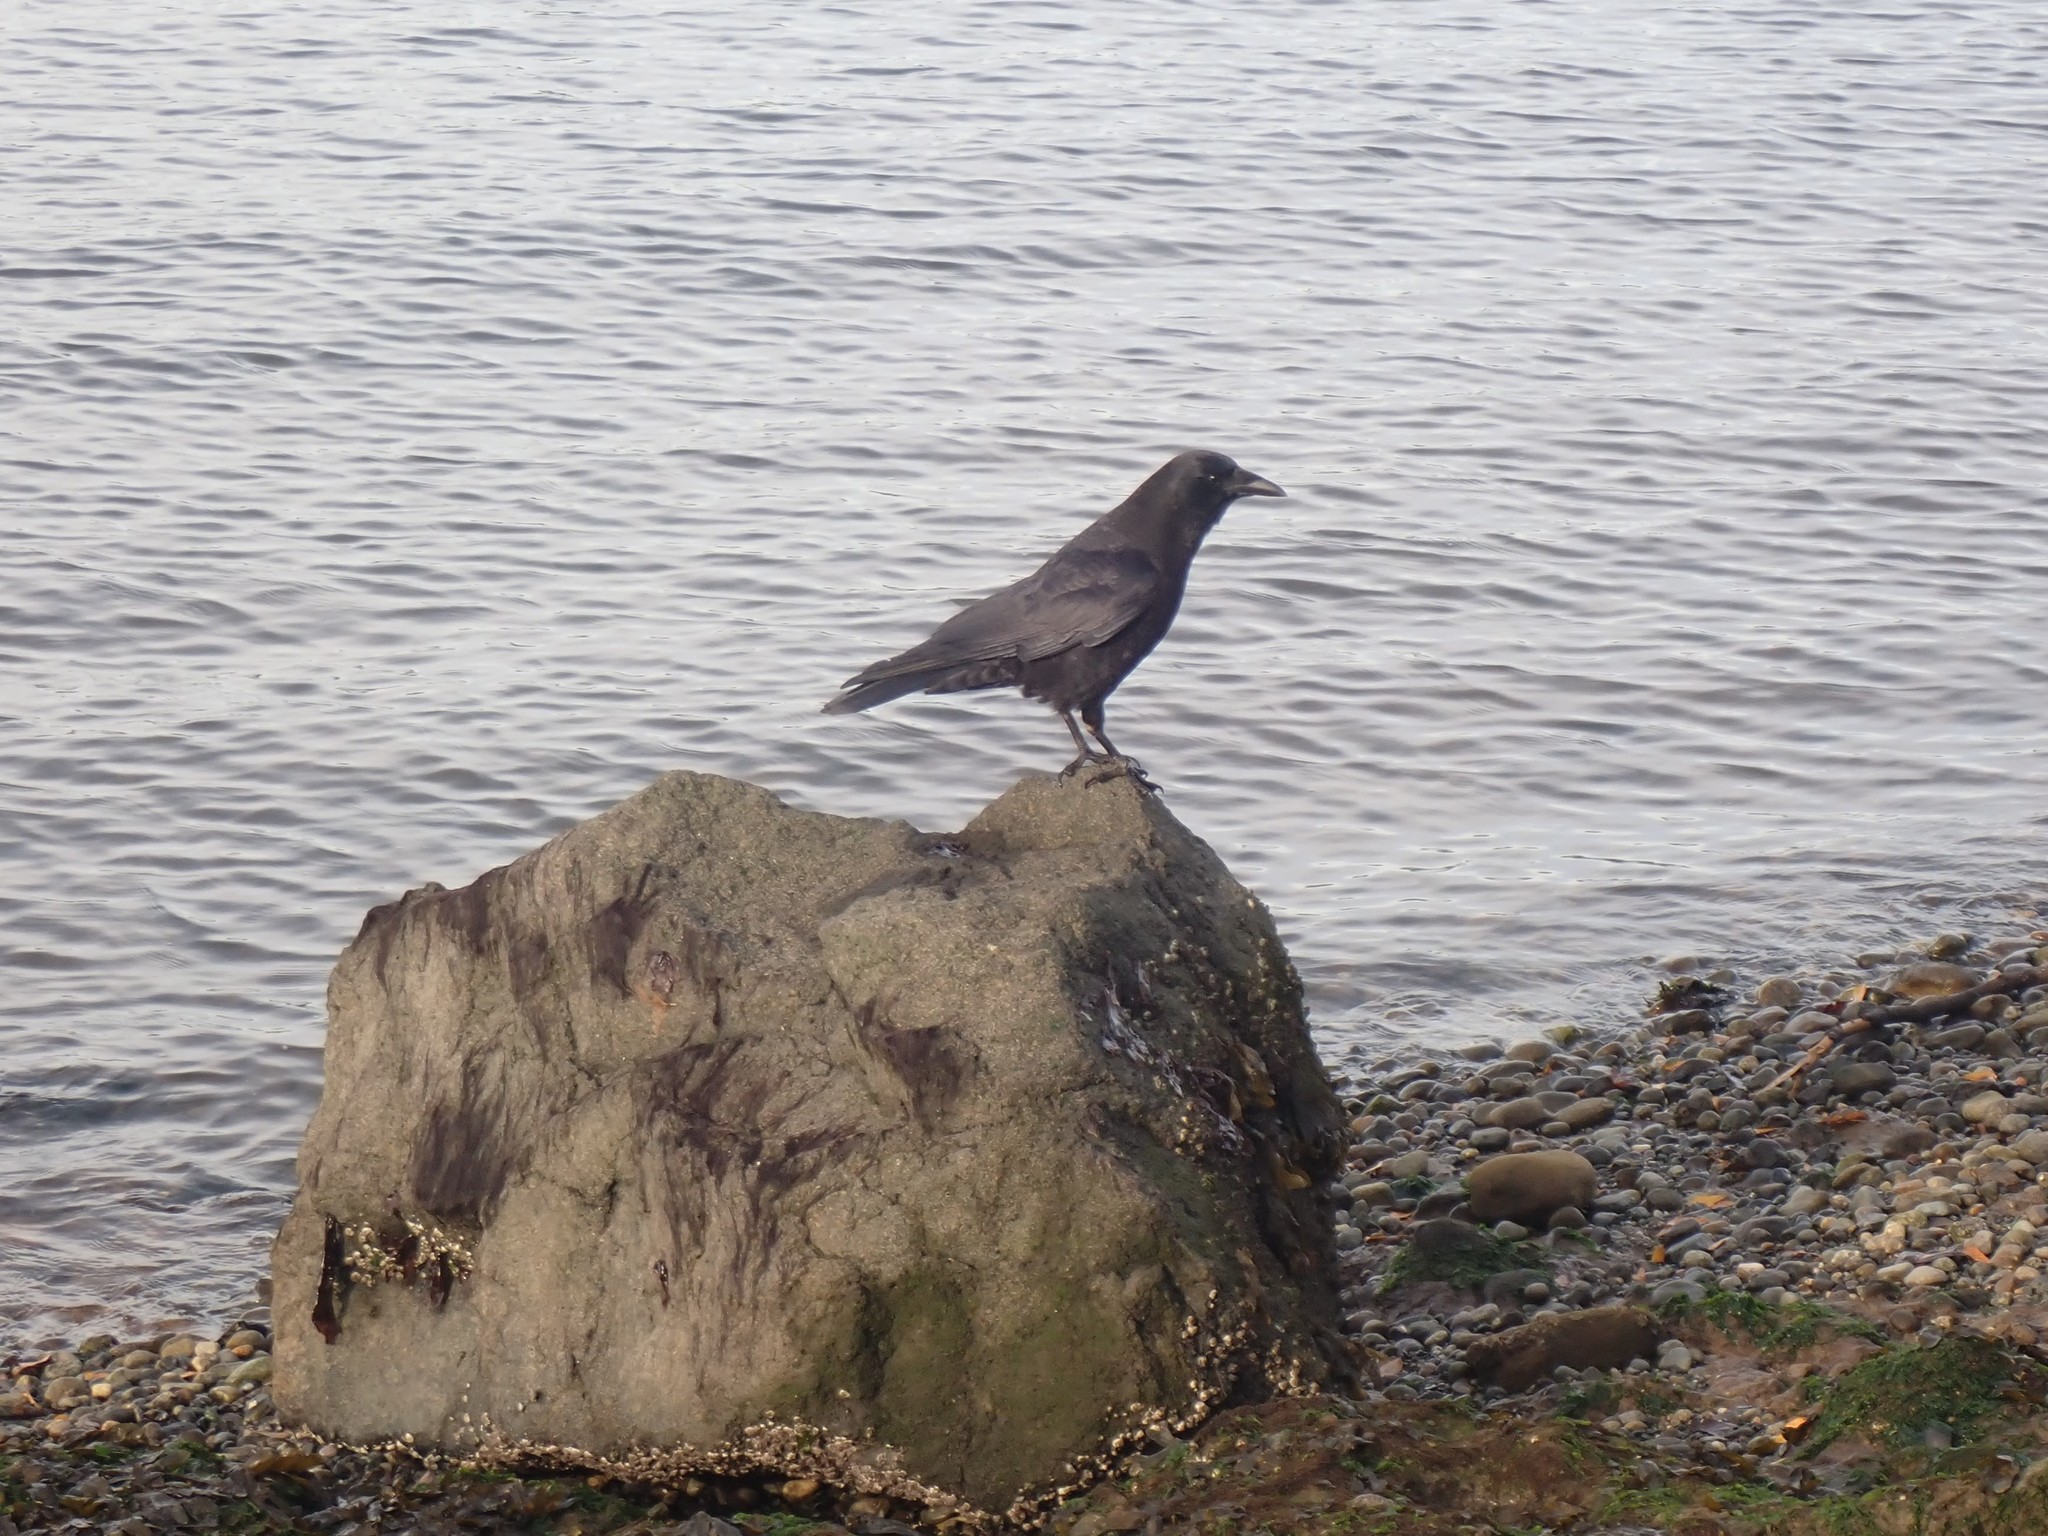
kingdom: Animalia
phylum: Chordata
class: Aves
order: Passeriformes
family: Corvidae
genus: Corvus
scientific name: Corvus brachyrhynchos
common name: American crow
